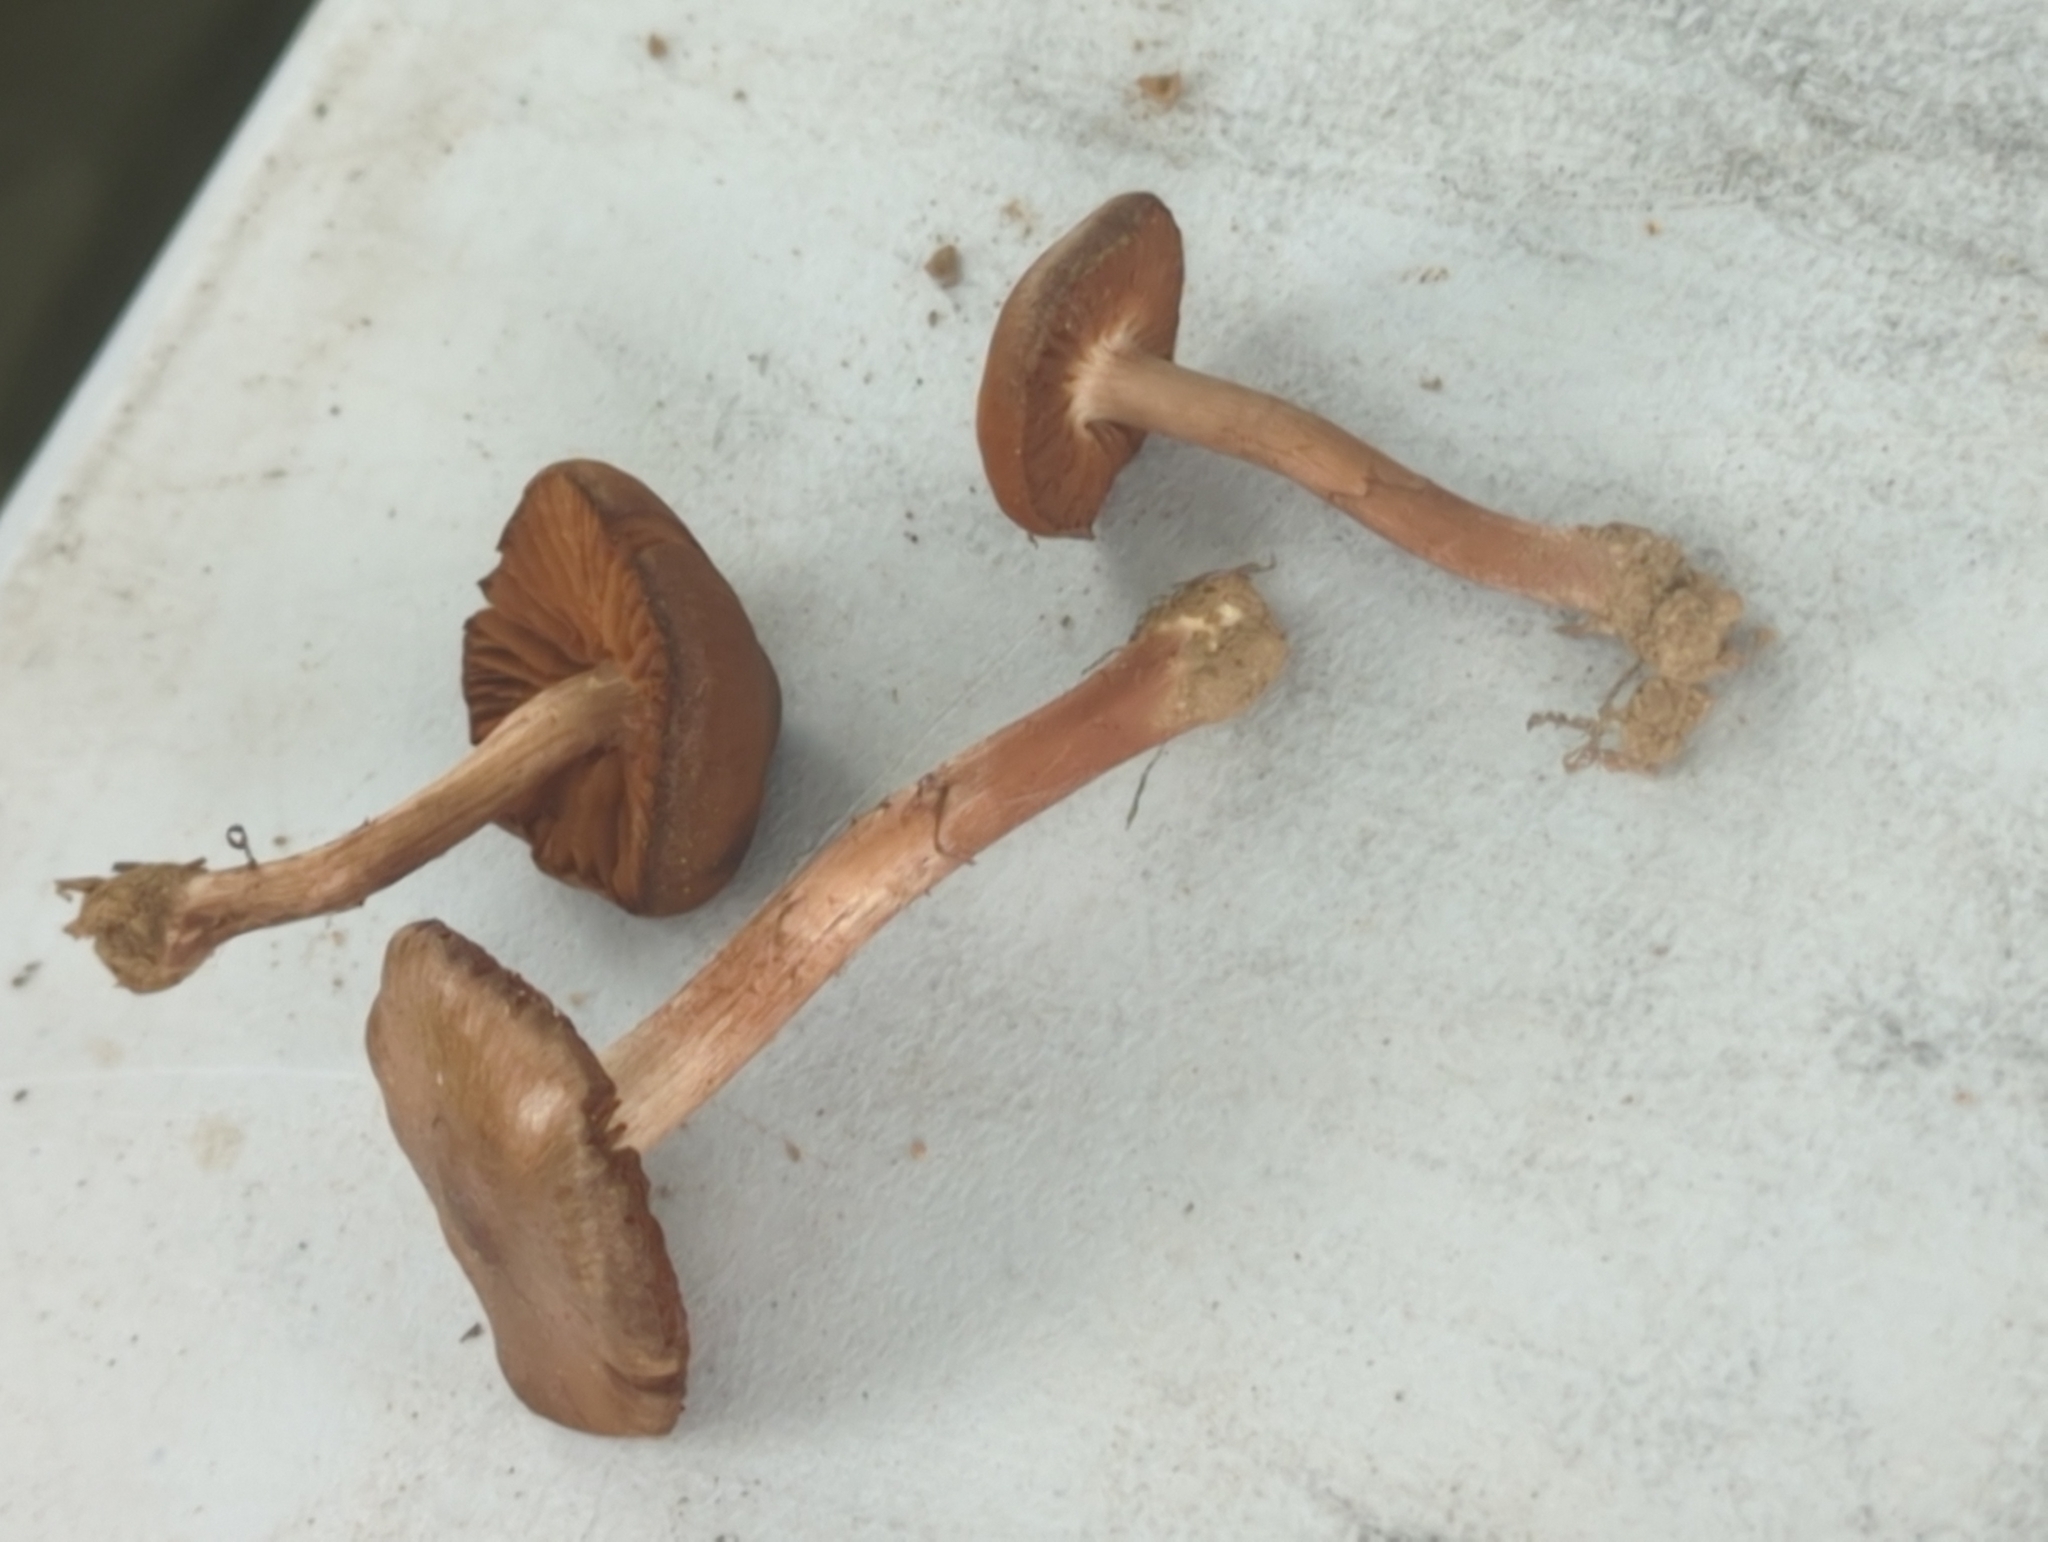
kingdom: Fungi
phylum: Basidiomycota
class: Agaricomycetes
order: Agaricales
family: Cortinariaceae
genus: Cortinarius
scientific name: Cortinarius suberythrinus
